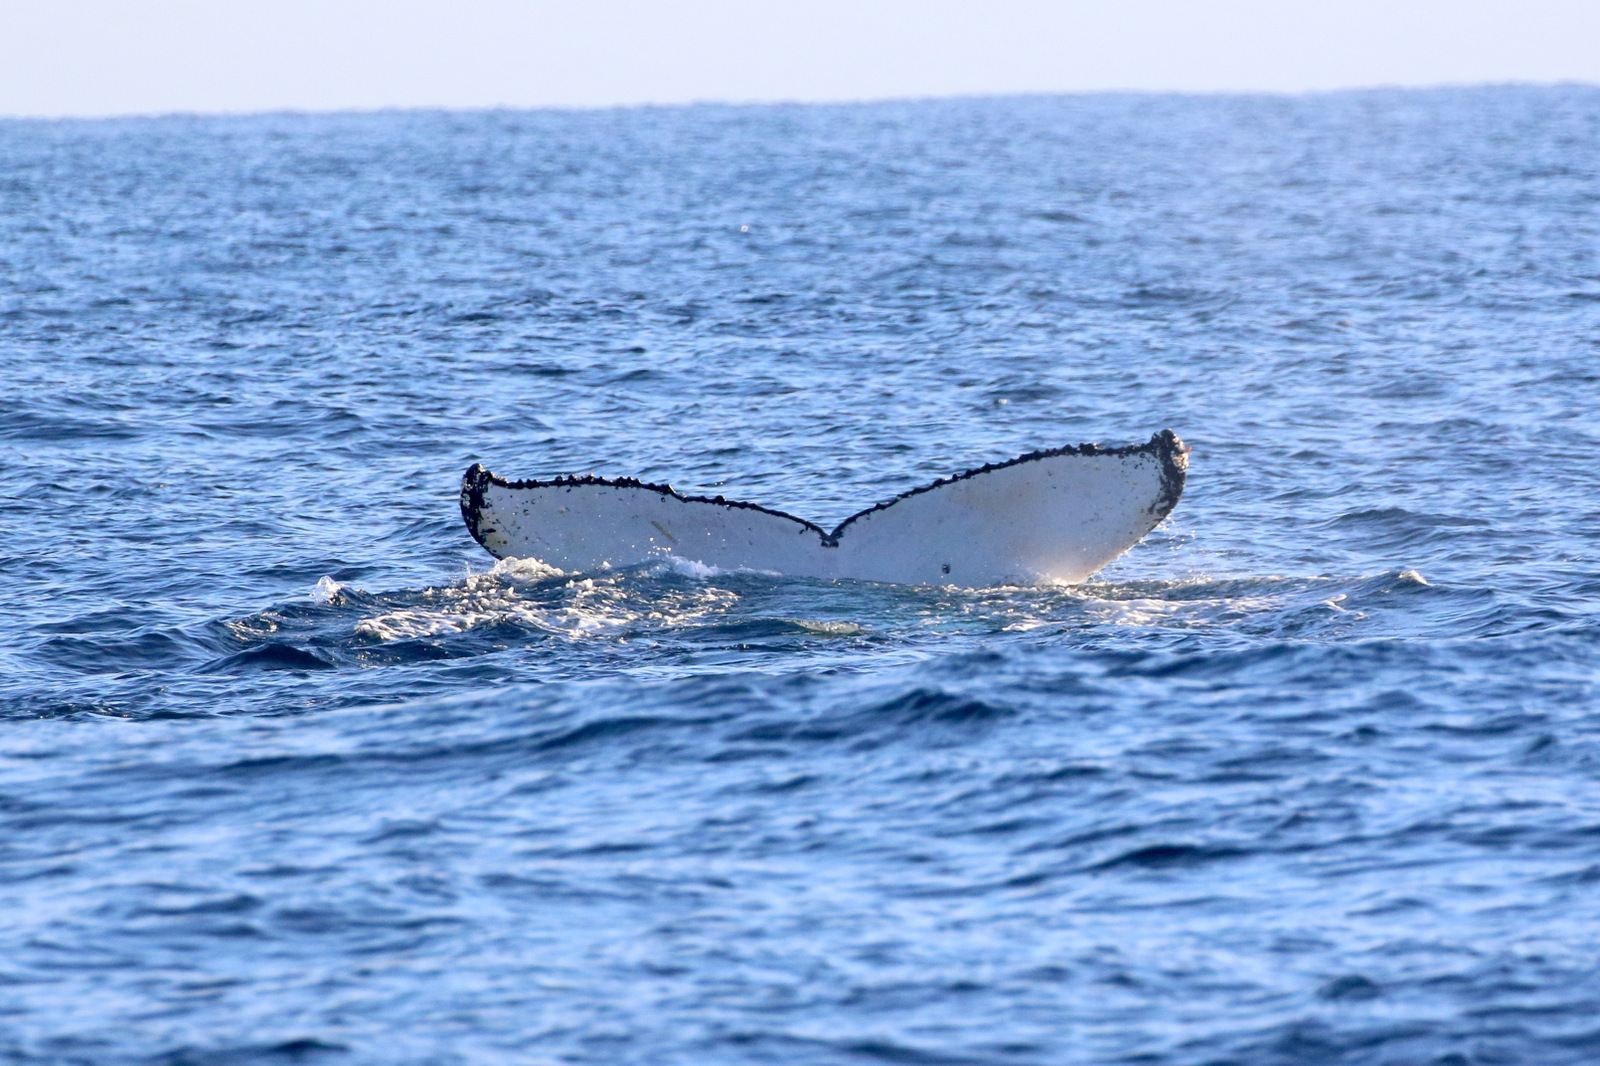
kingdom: Animalia
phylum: Chordata
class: Mammalia
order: Cetacea
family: Balaenopteridae
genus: Megaptera
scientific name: Megaptera novaeangliae
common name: Humpback whale
